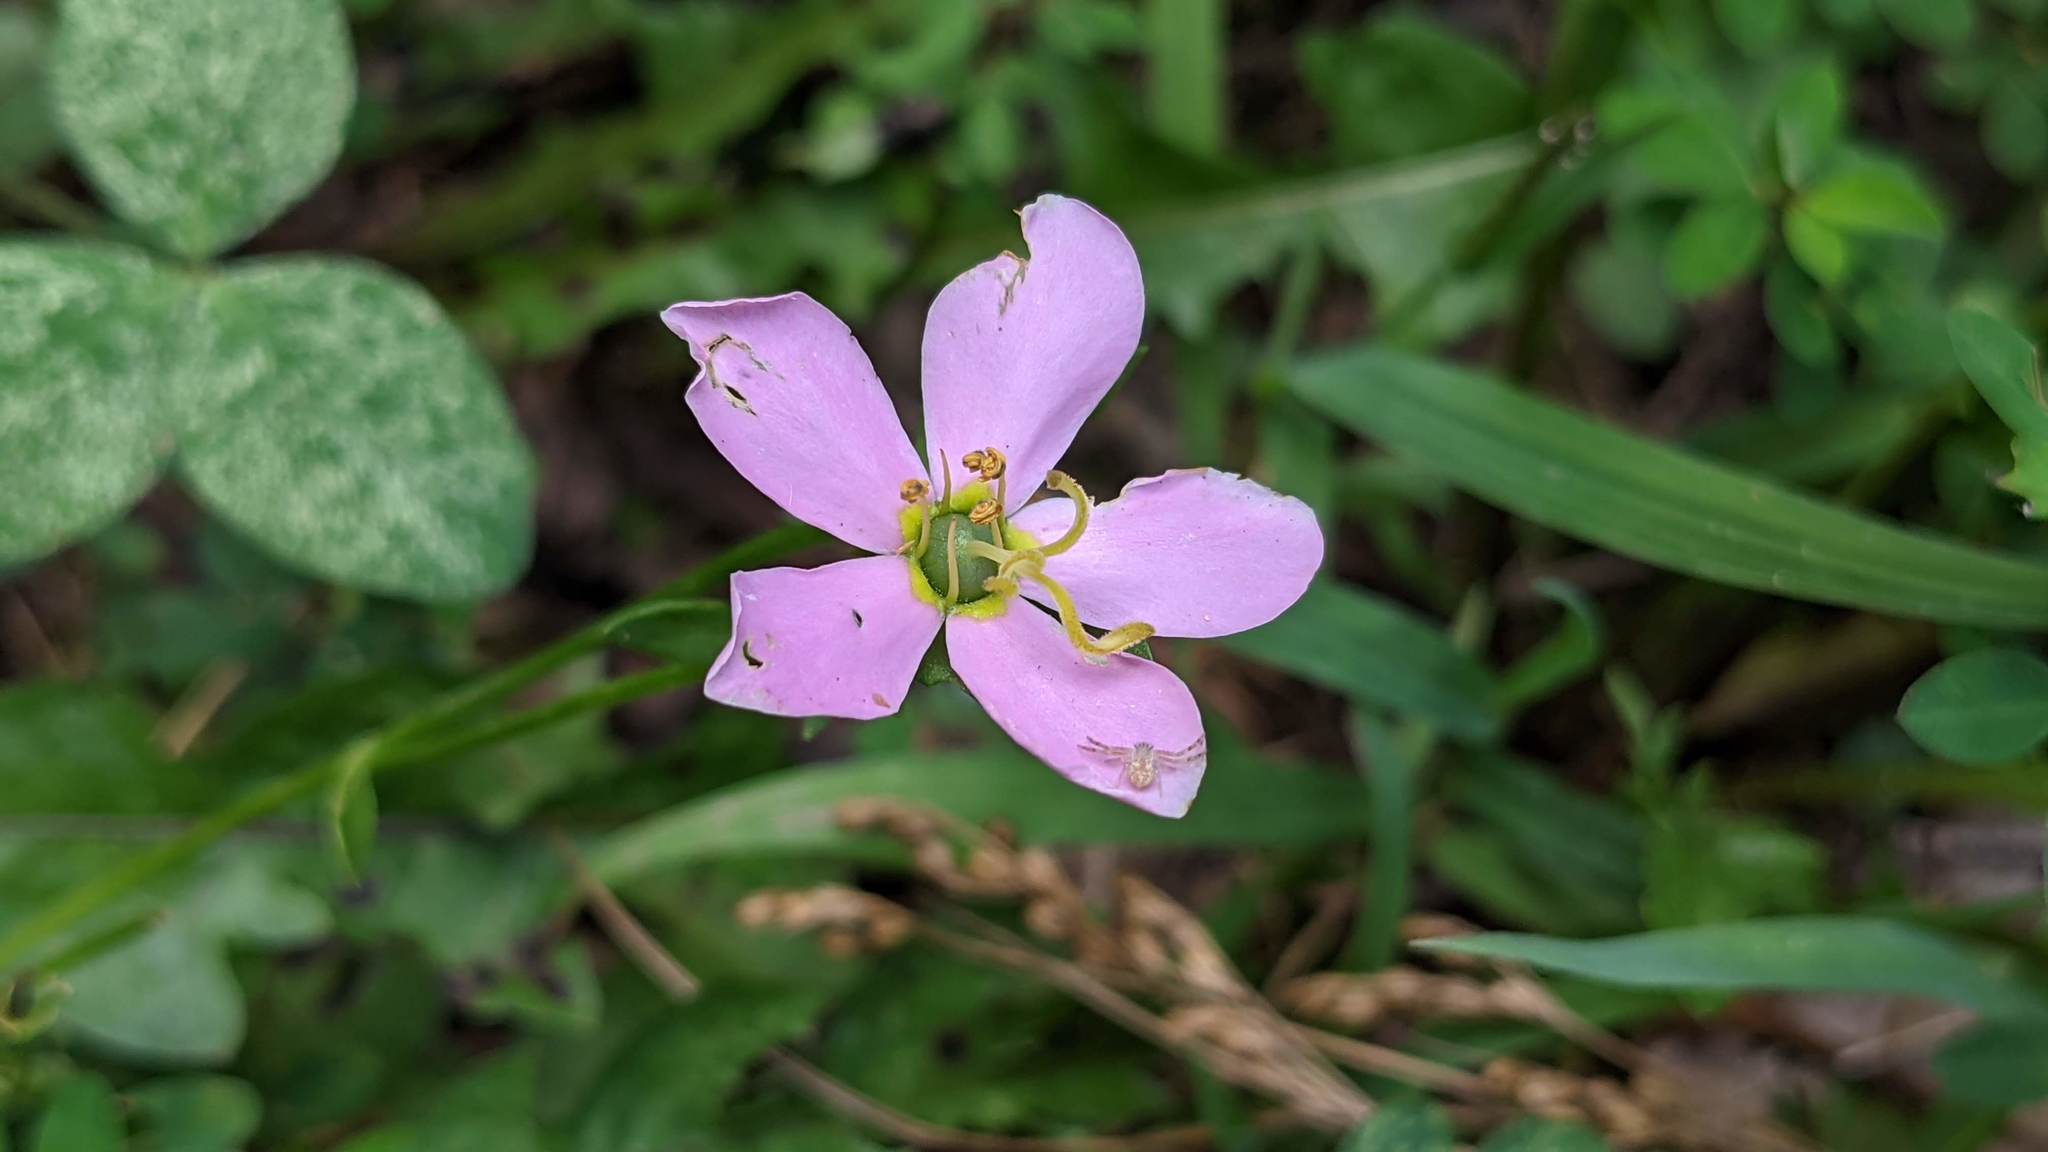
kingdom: Plantae
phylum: Tracheophyta
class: Magnoliopsida
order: Gentianales
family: Gentianaceae
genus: Sabatia
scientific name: Sabatia angularis
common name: Rose-pink
